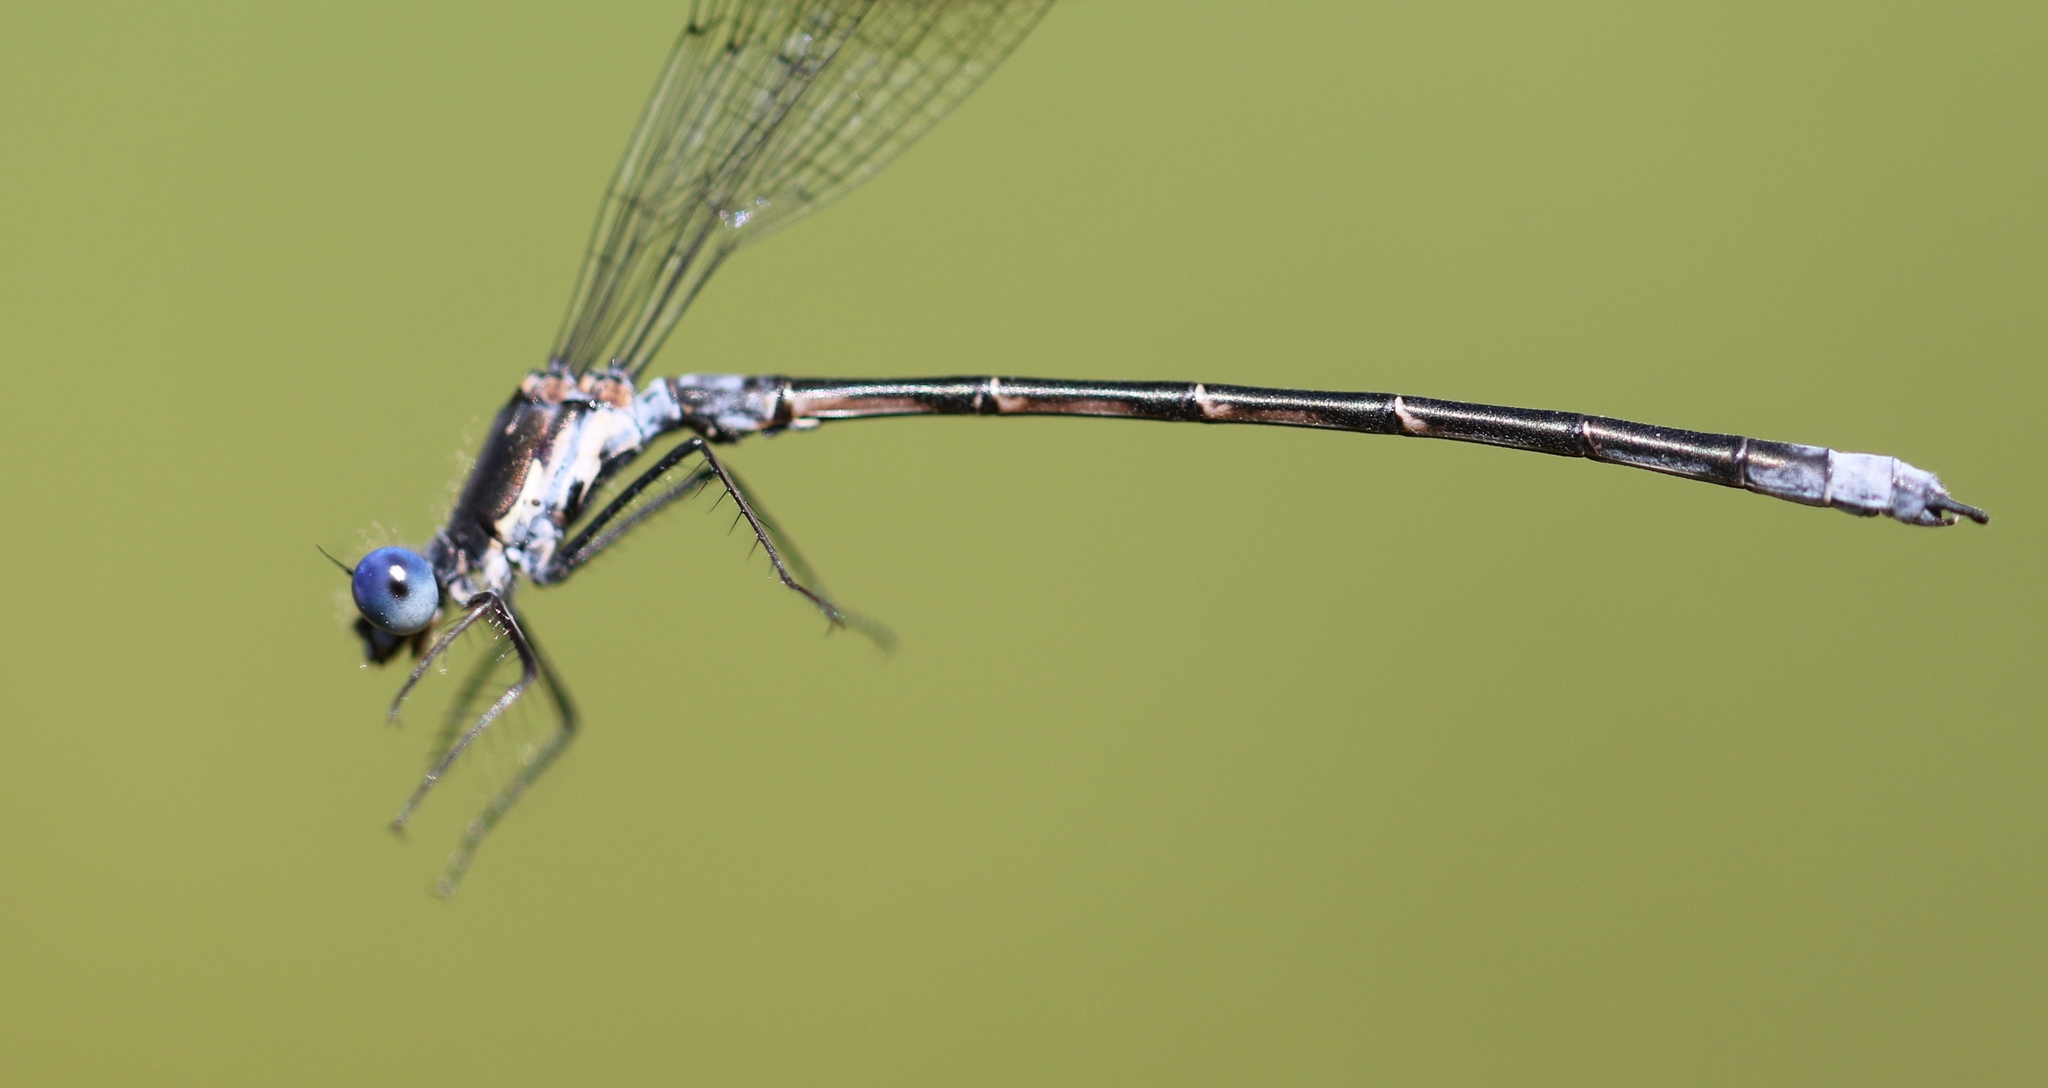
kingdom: Animalia
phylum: Arthropoda
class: Insecta
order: Odonata
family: Lestidae
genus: Lestes
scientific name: Lestes congener
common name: Spotted spreadwing
